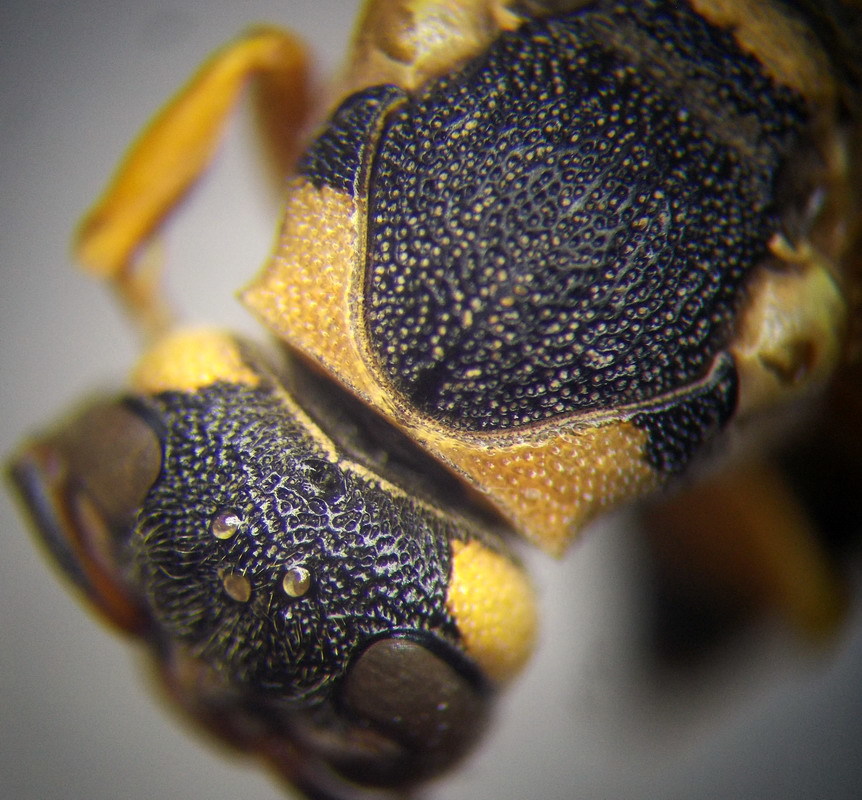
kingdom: Animalia
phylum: Arthropoda
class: Insecta
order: Hymenoptera
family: Vespidae
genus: Pseudepipona
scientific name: Pseudepipona tricarinata
